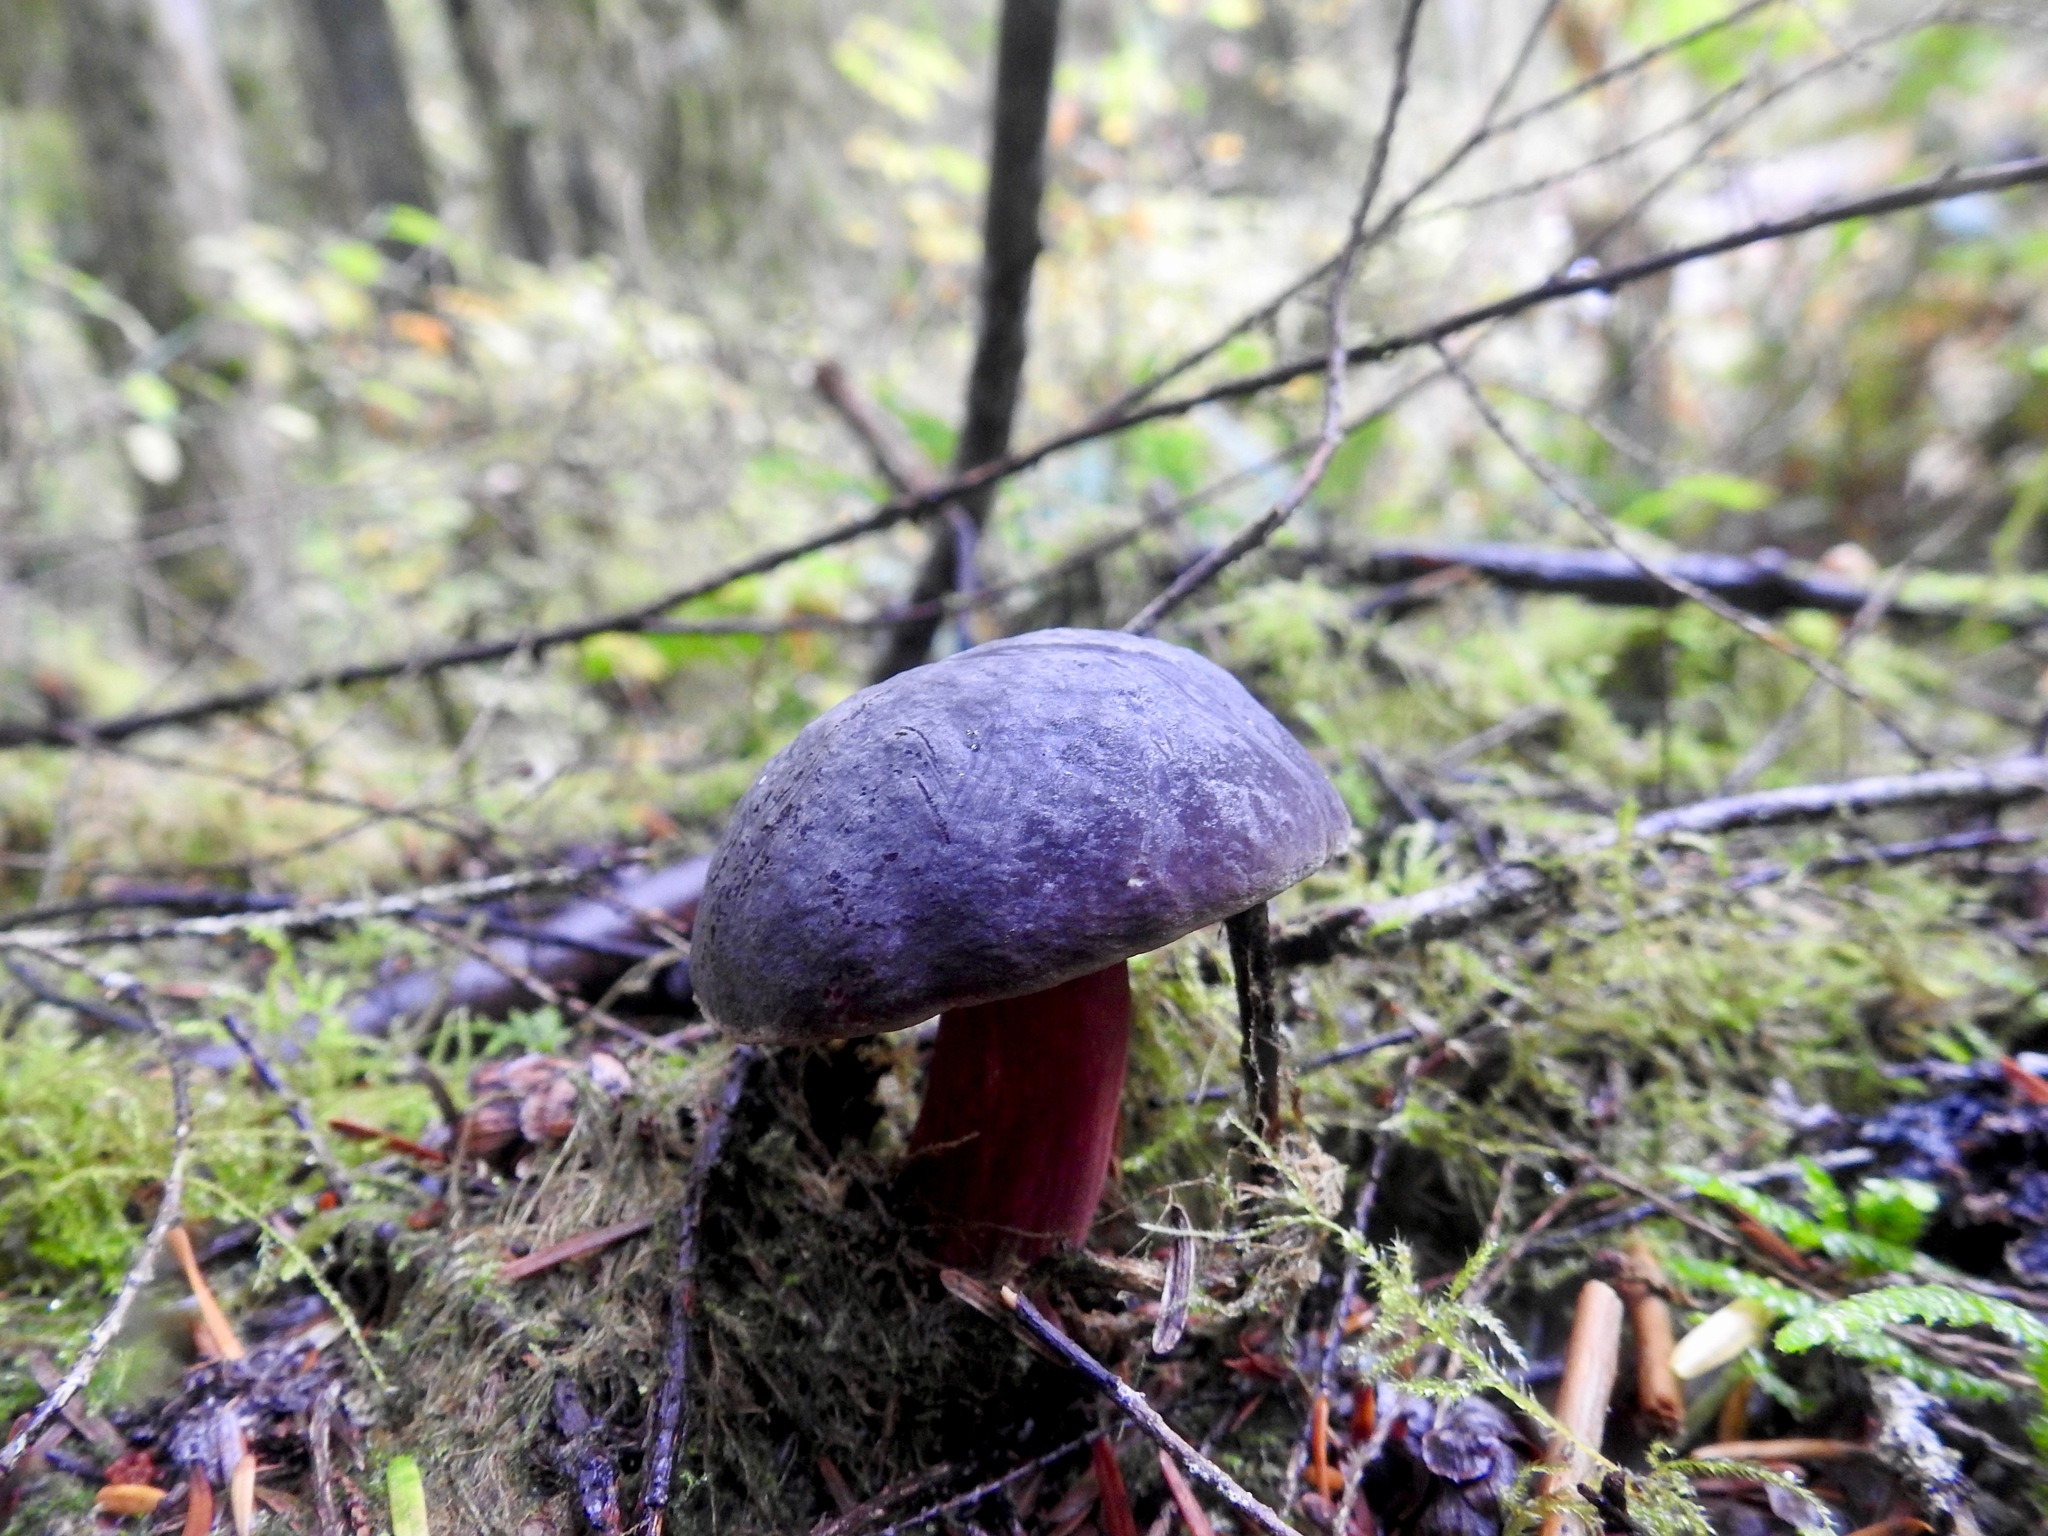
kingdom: Fungi
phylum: Basidiomycota
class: Agaricomycetes
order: Boletales
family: Boletaceae
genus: Xerocomellus
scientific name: Xerocomellus atropurpureus
